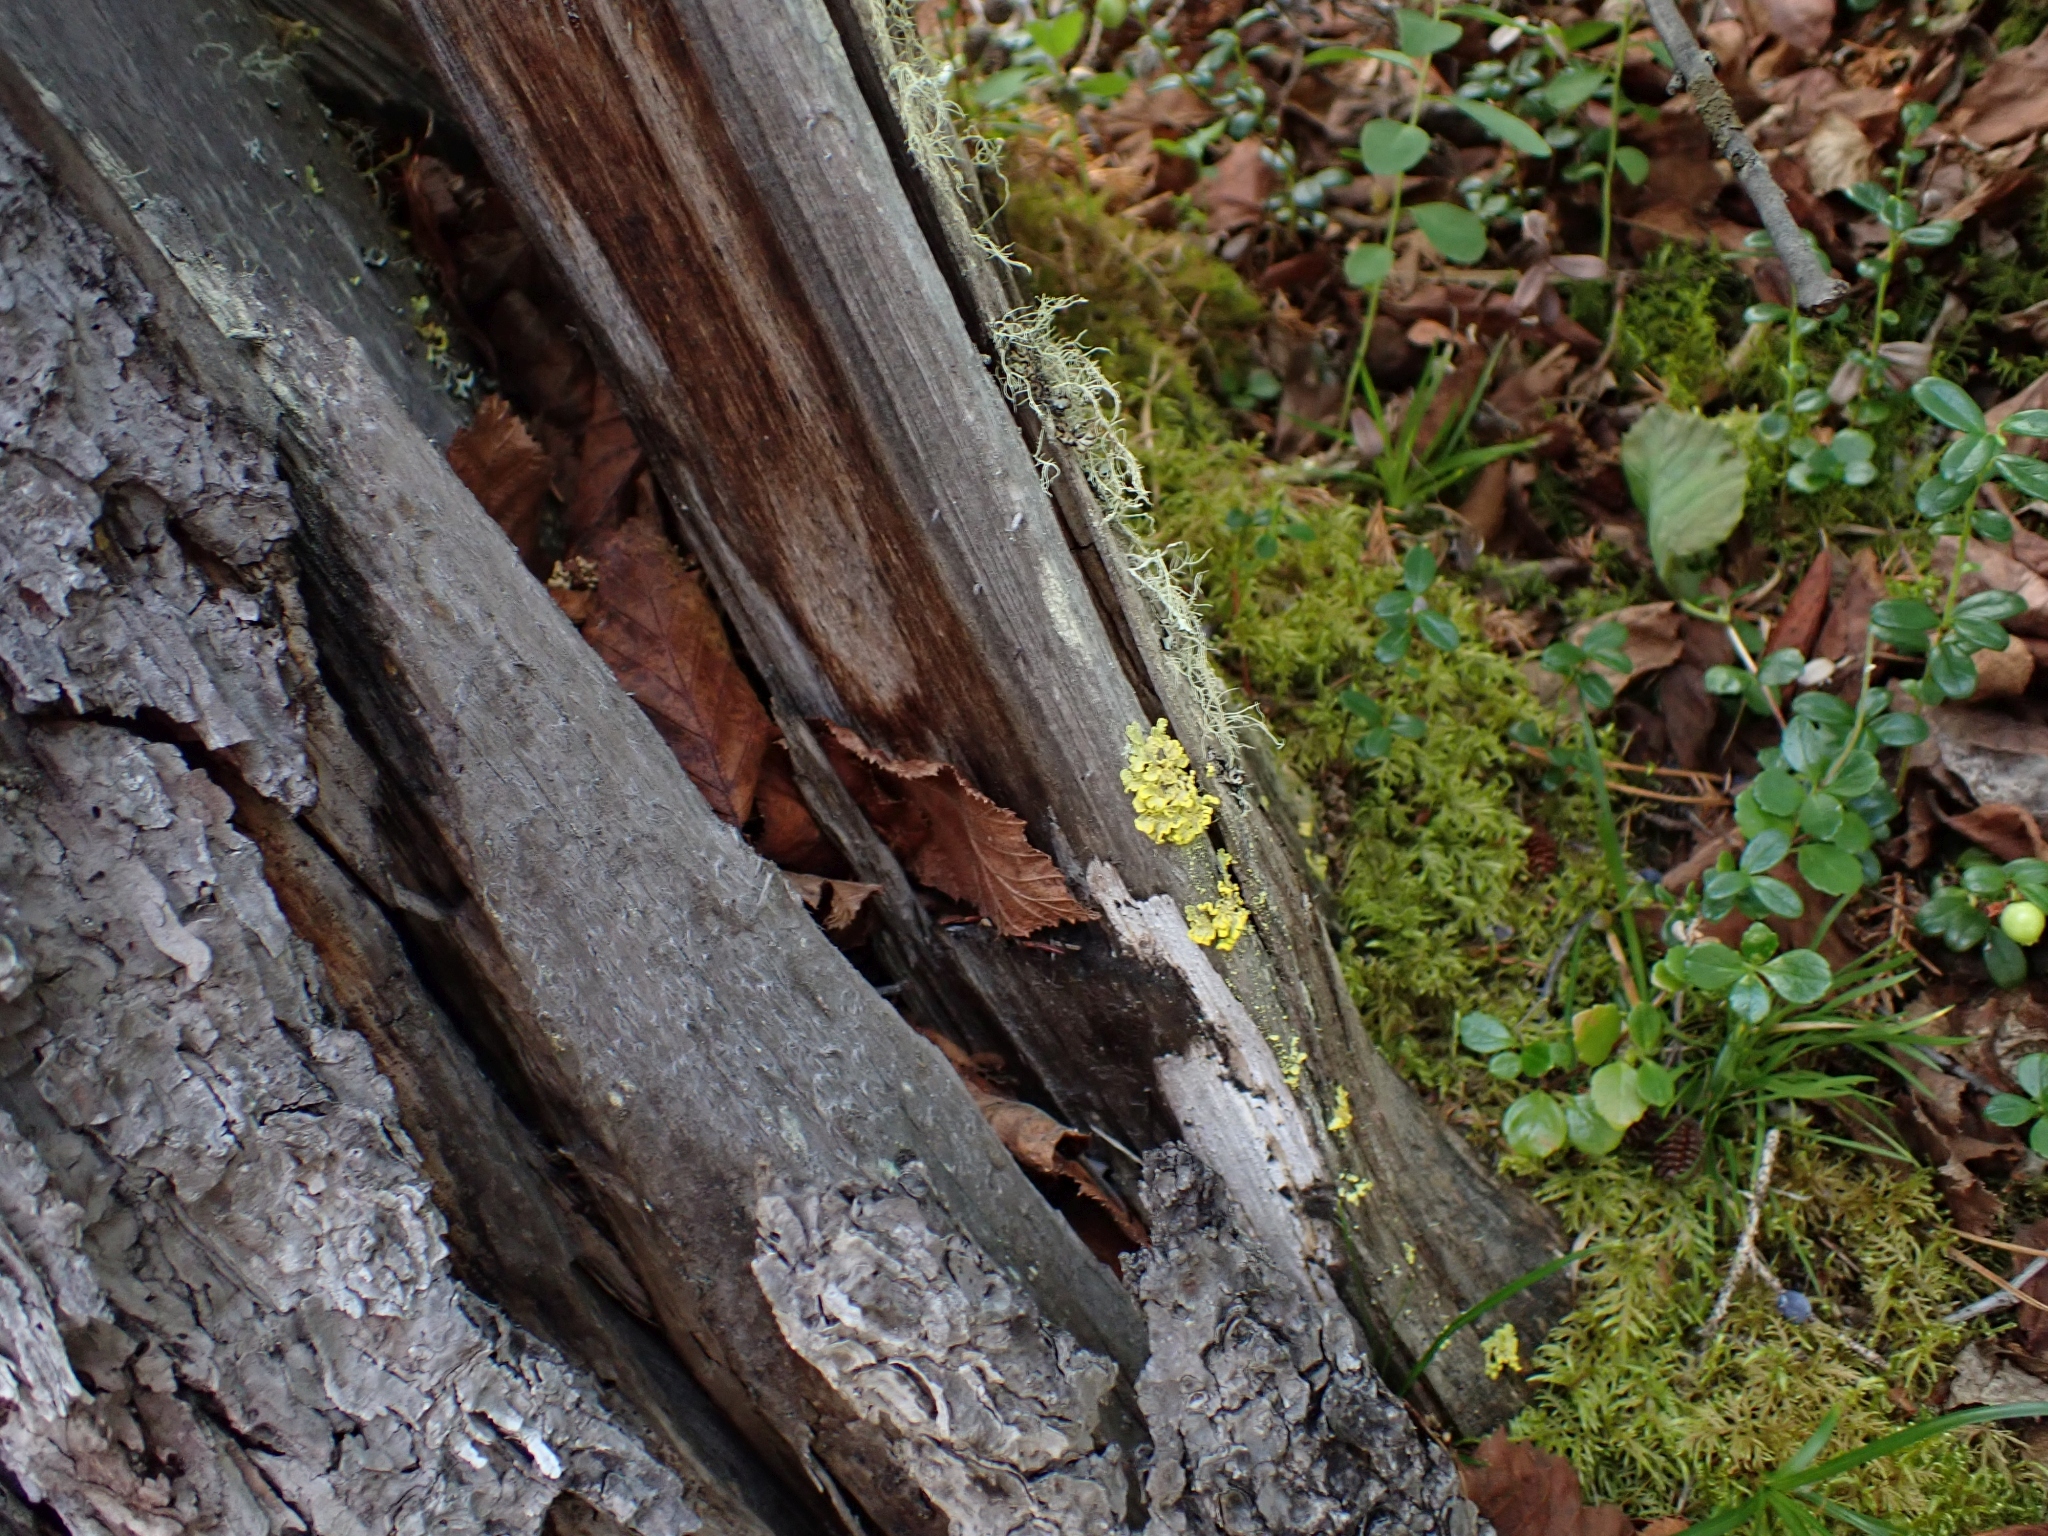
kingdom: Fungi
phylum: Ascomycota
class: Lecanoromycetes
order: Lecanorales
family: Parmeliaceae
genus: Vulpicida
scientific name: Vulpicida pinastri
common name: Powdered sunshine lichen
